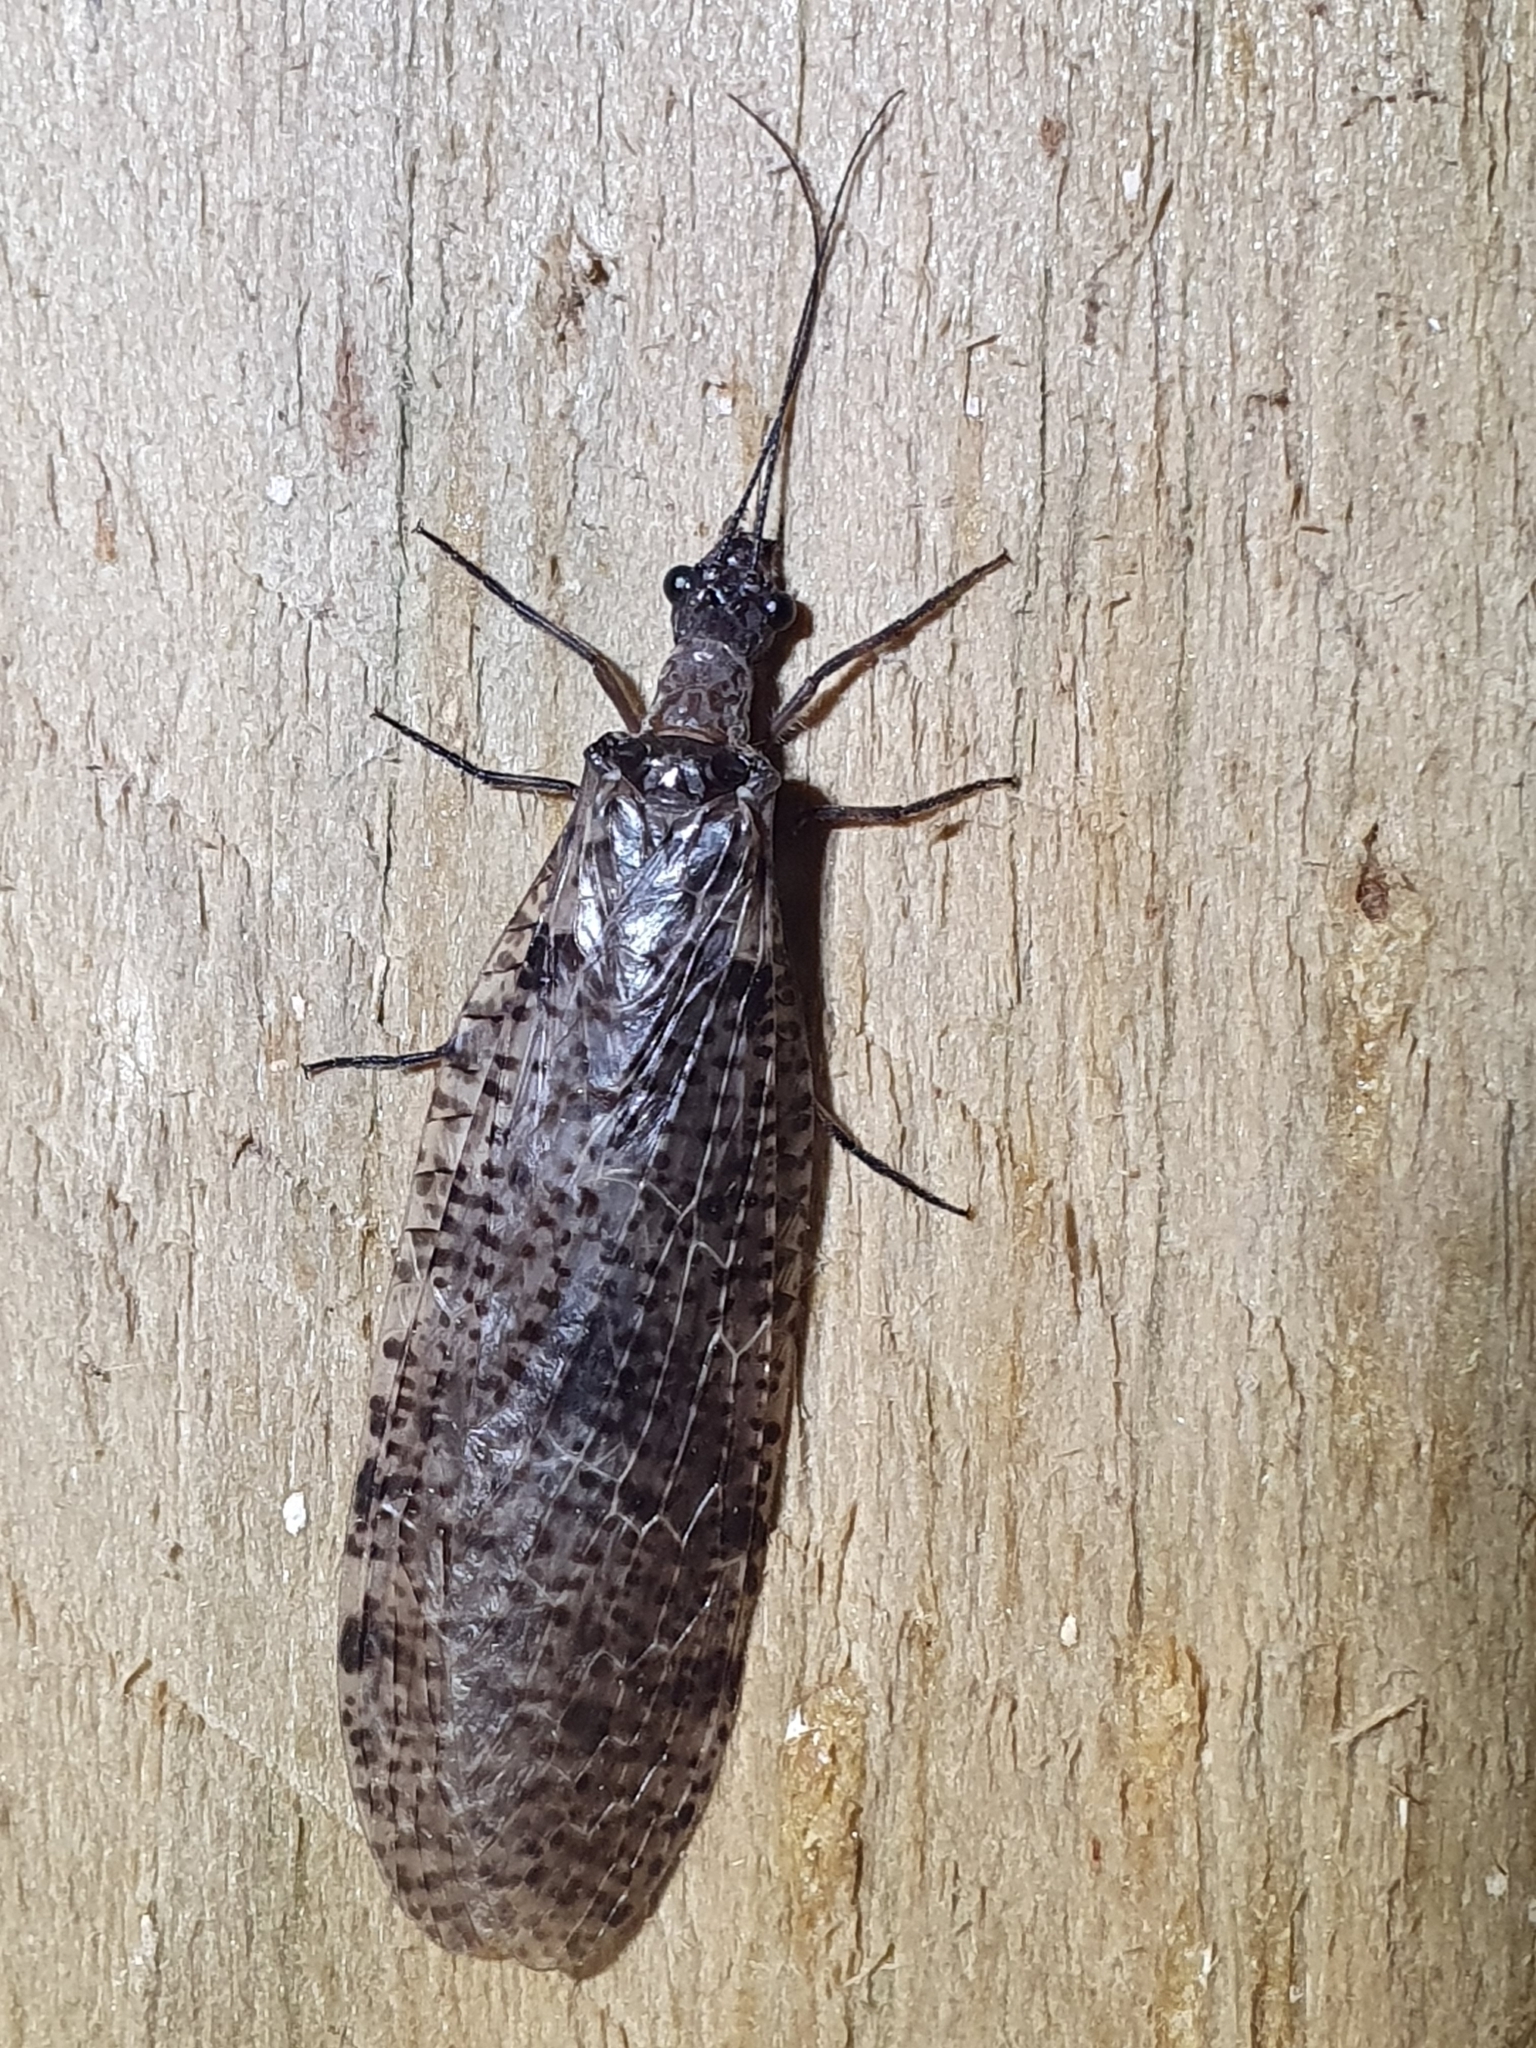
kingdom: Animalia
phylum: Arthropoda
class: Insecta
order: Megaloptera
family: Corydalidae
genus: Archichauliodes
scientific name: Archichauliodes diversus
